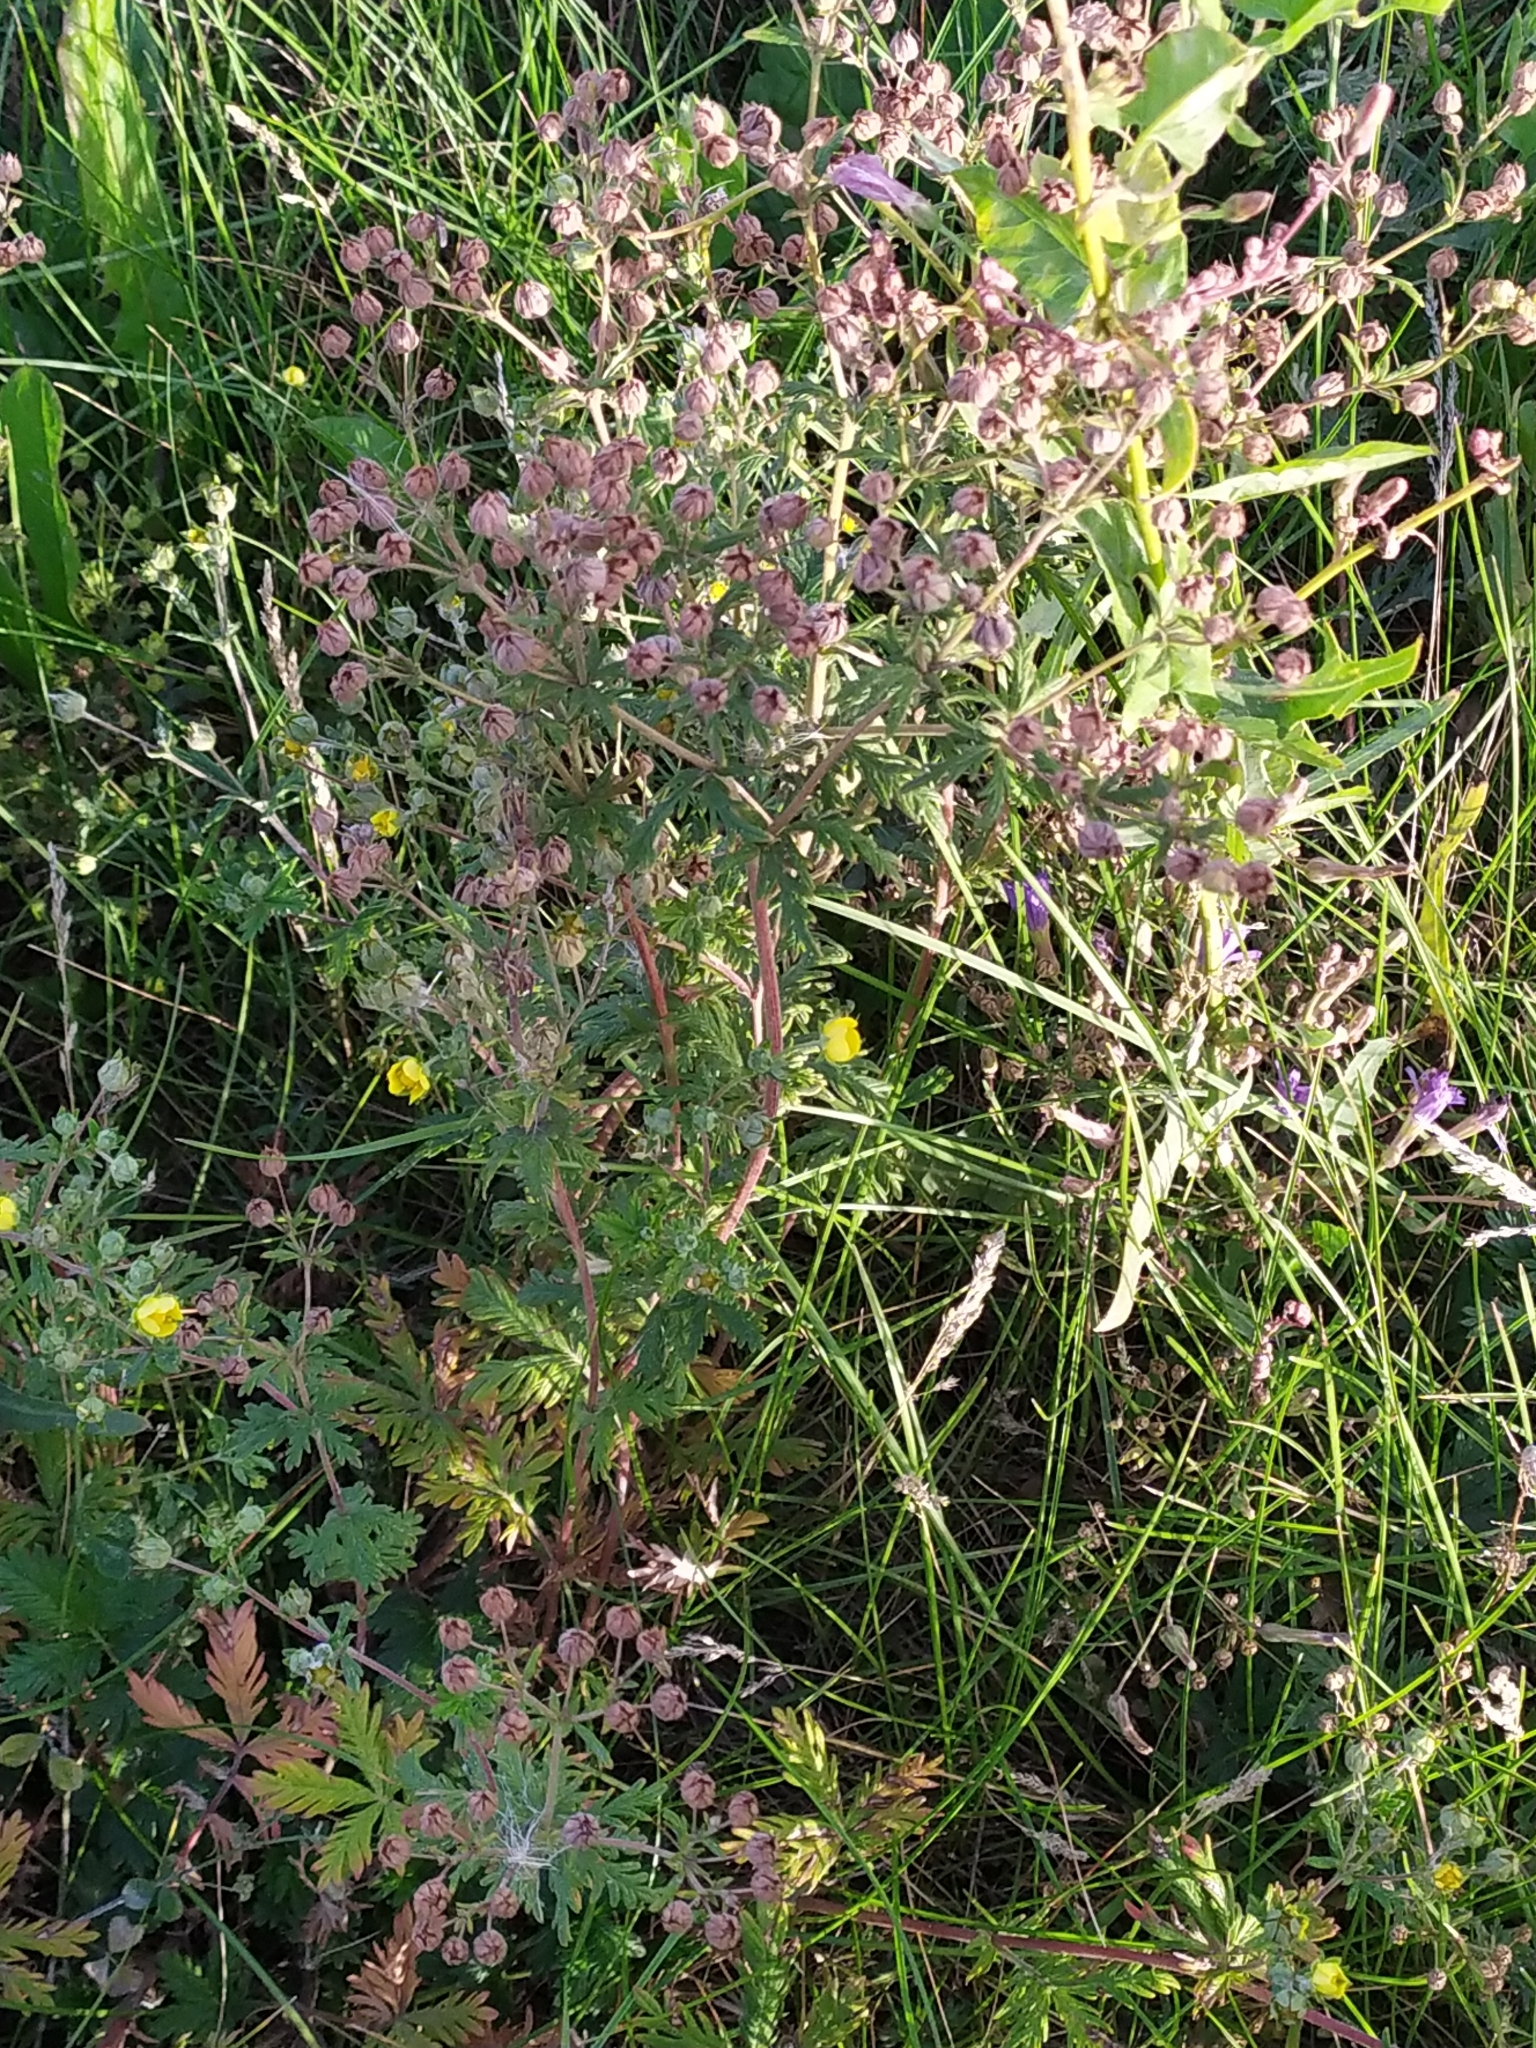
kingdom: Plantae
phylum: Tracheophyta
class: Magnoliopsida
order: Rosales
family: Rosaceae
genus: Potentilla
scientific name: Potentilla conferta
